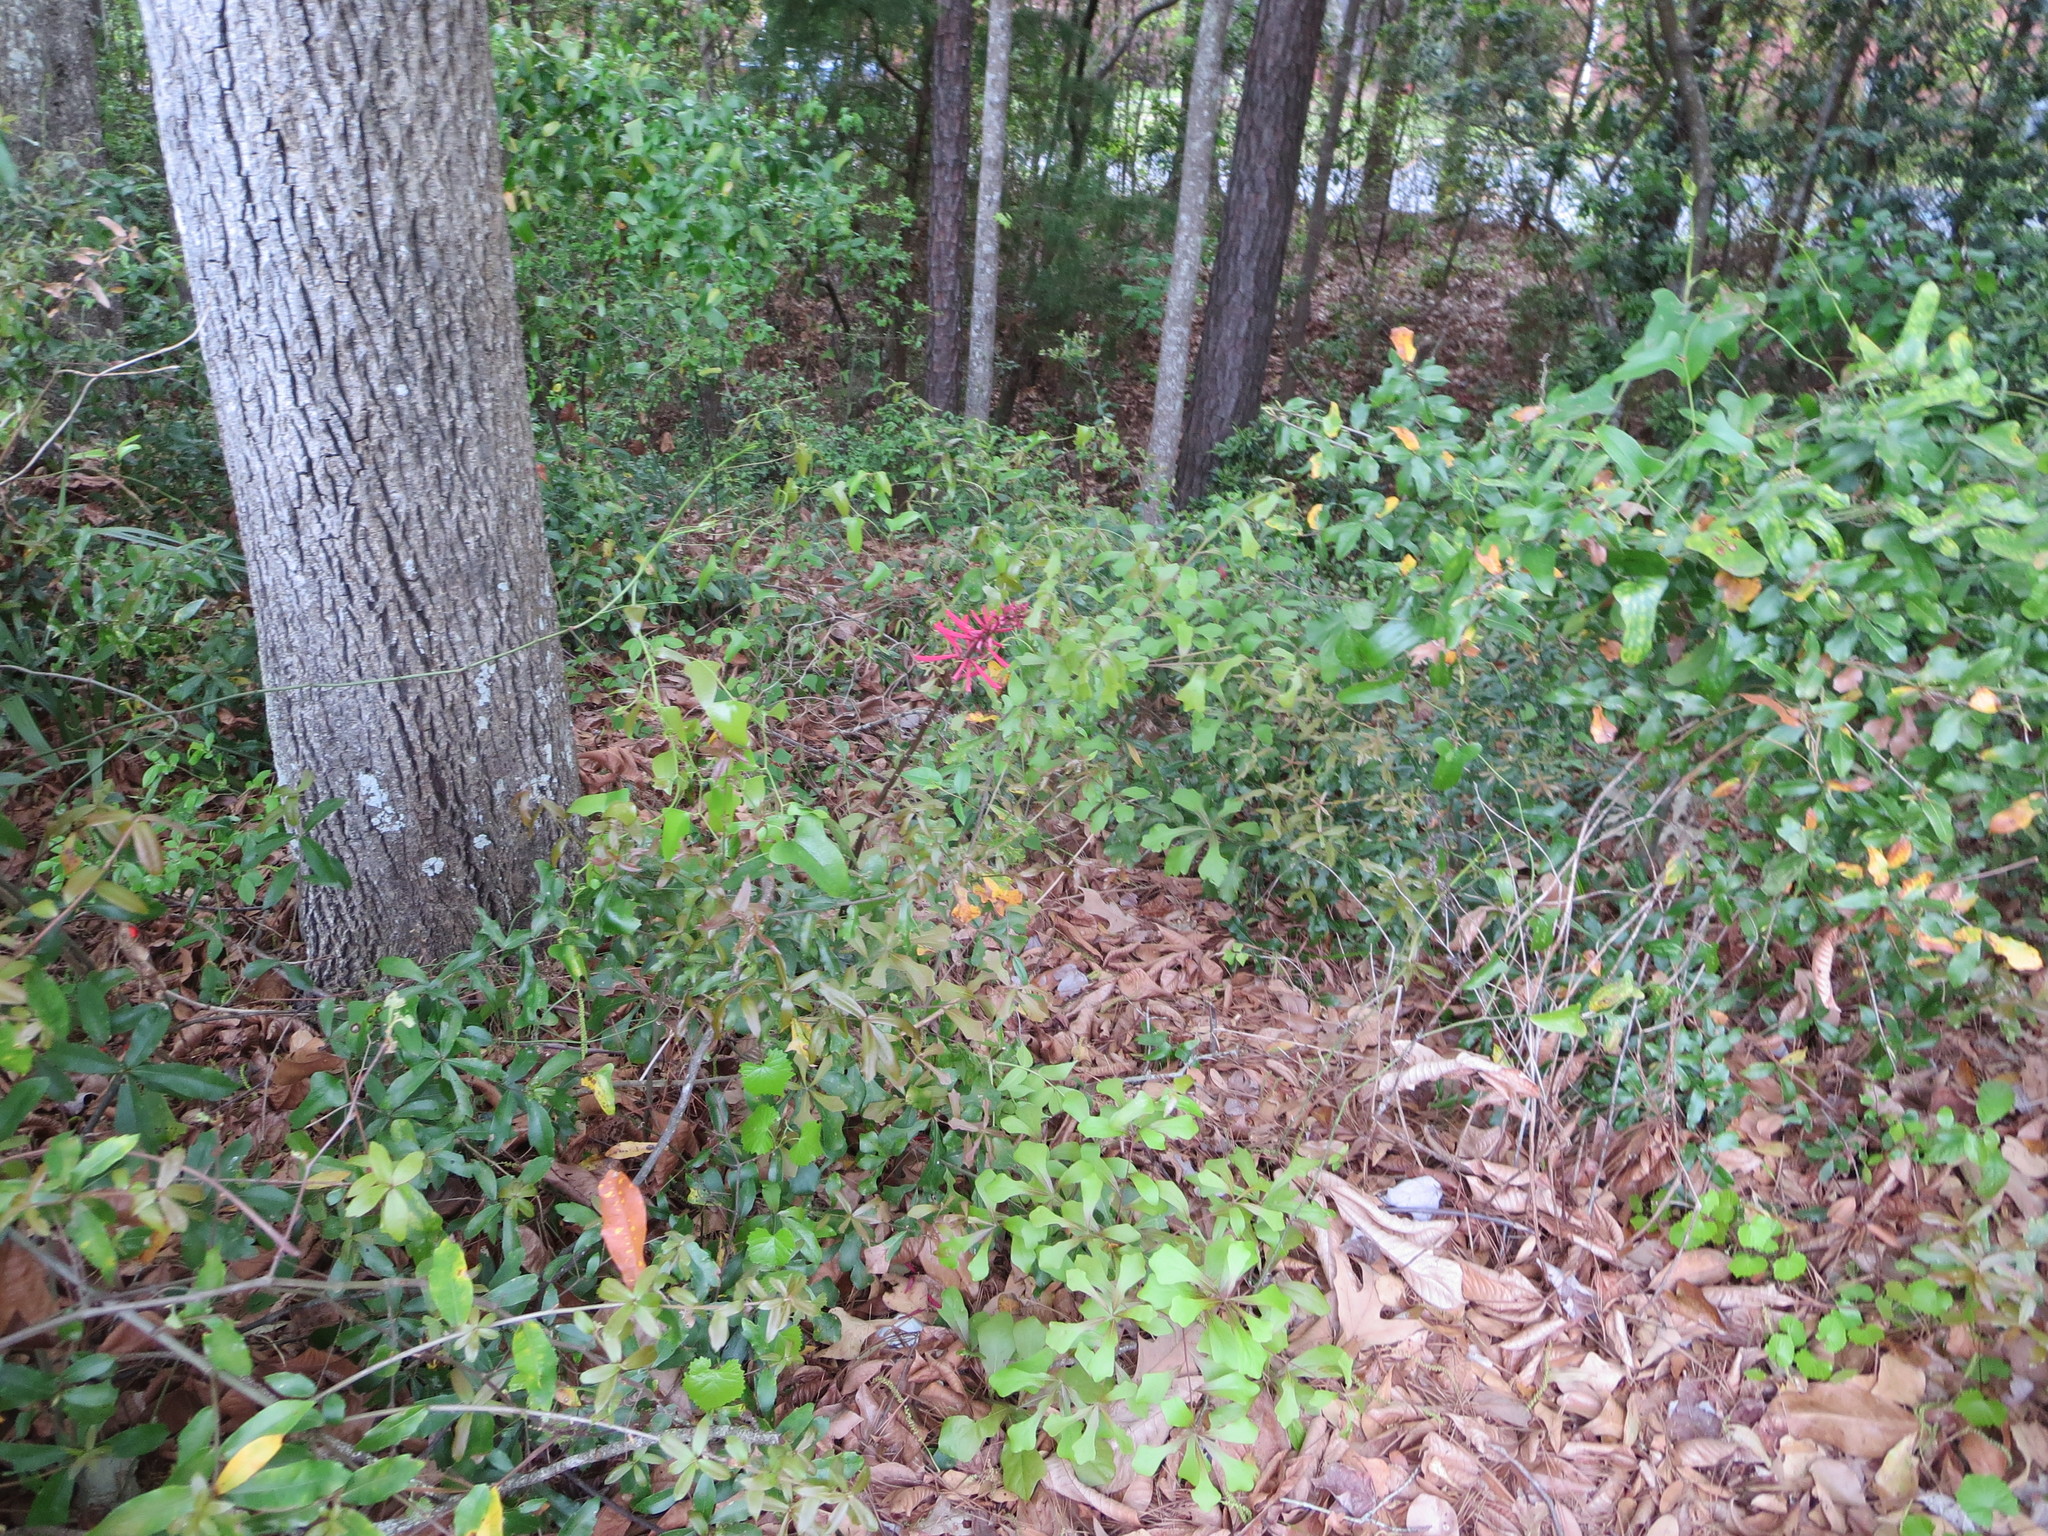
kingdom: Plantae
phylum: Tracheophyta
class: Magnoliopsida
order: Fabales
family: Fabaceae
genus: Erythrina
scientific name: Erythrina herbacea
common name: Coral-bean
